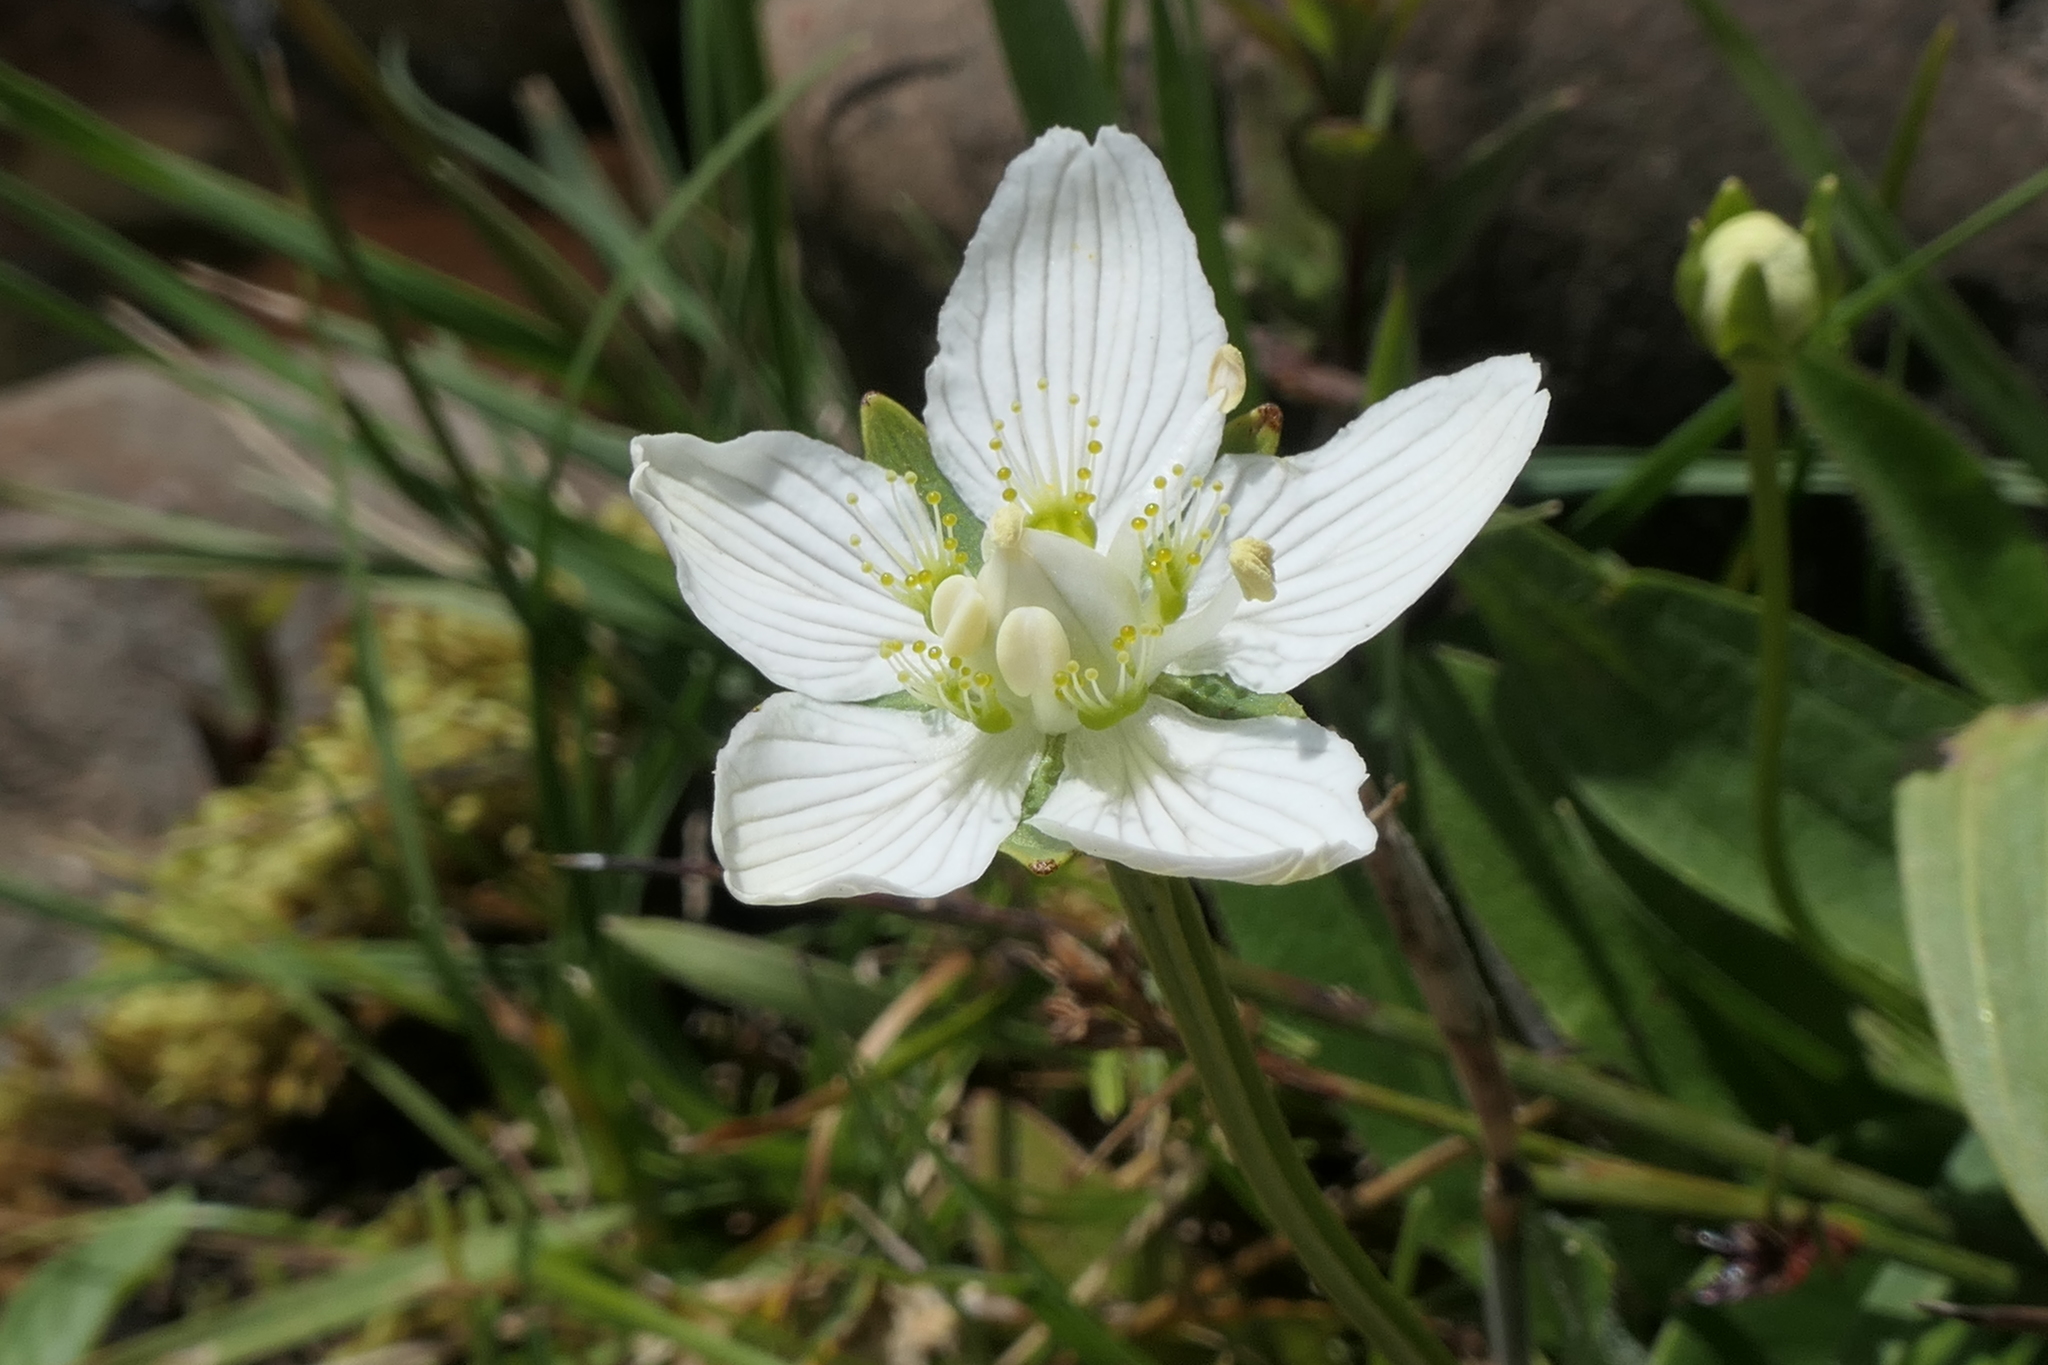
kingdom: Plantae
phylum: Tracheophyta
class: Magnoliopsida
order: Celastrales
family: Parnassiaceae
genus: Parnassia
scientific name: Parnassia palustris
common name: Grass-of-parnassus
